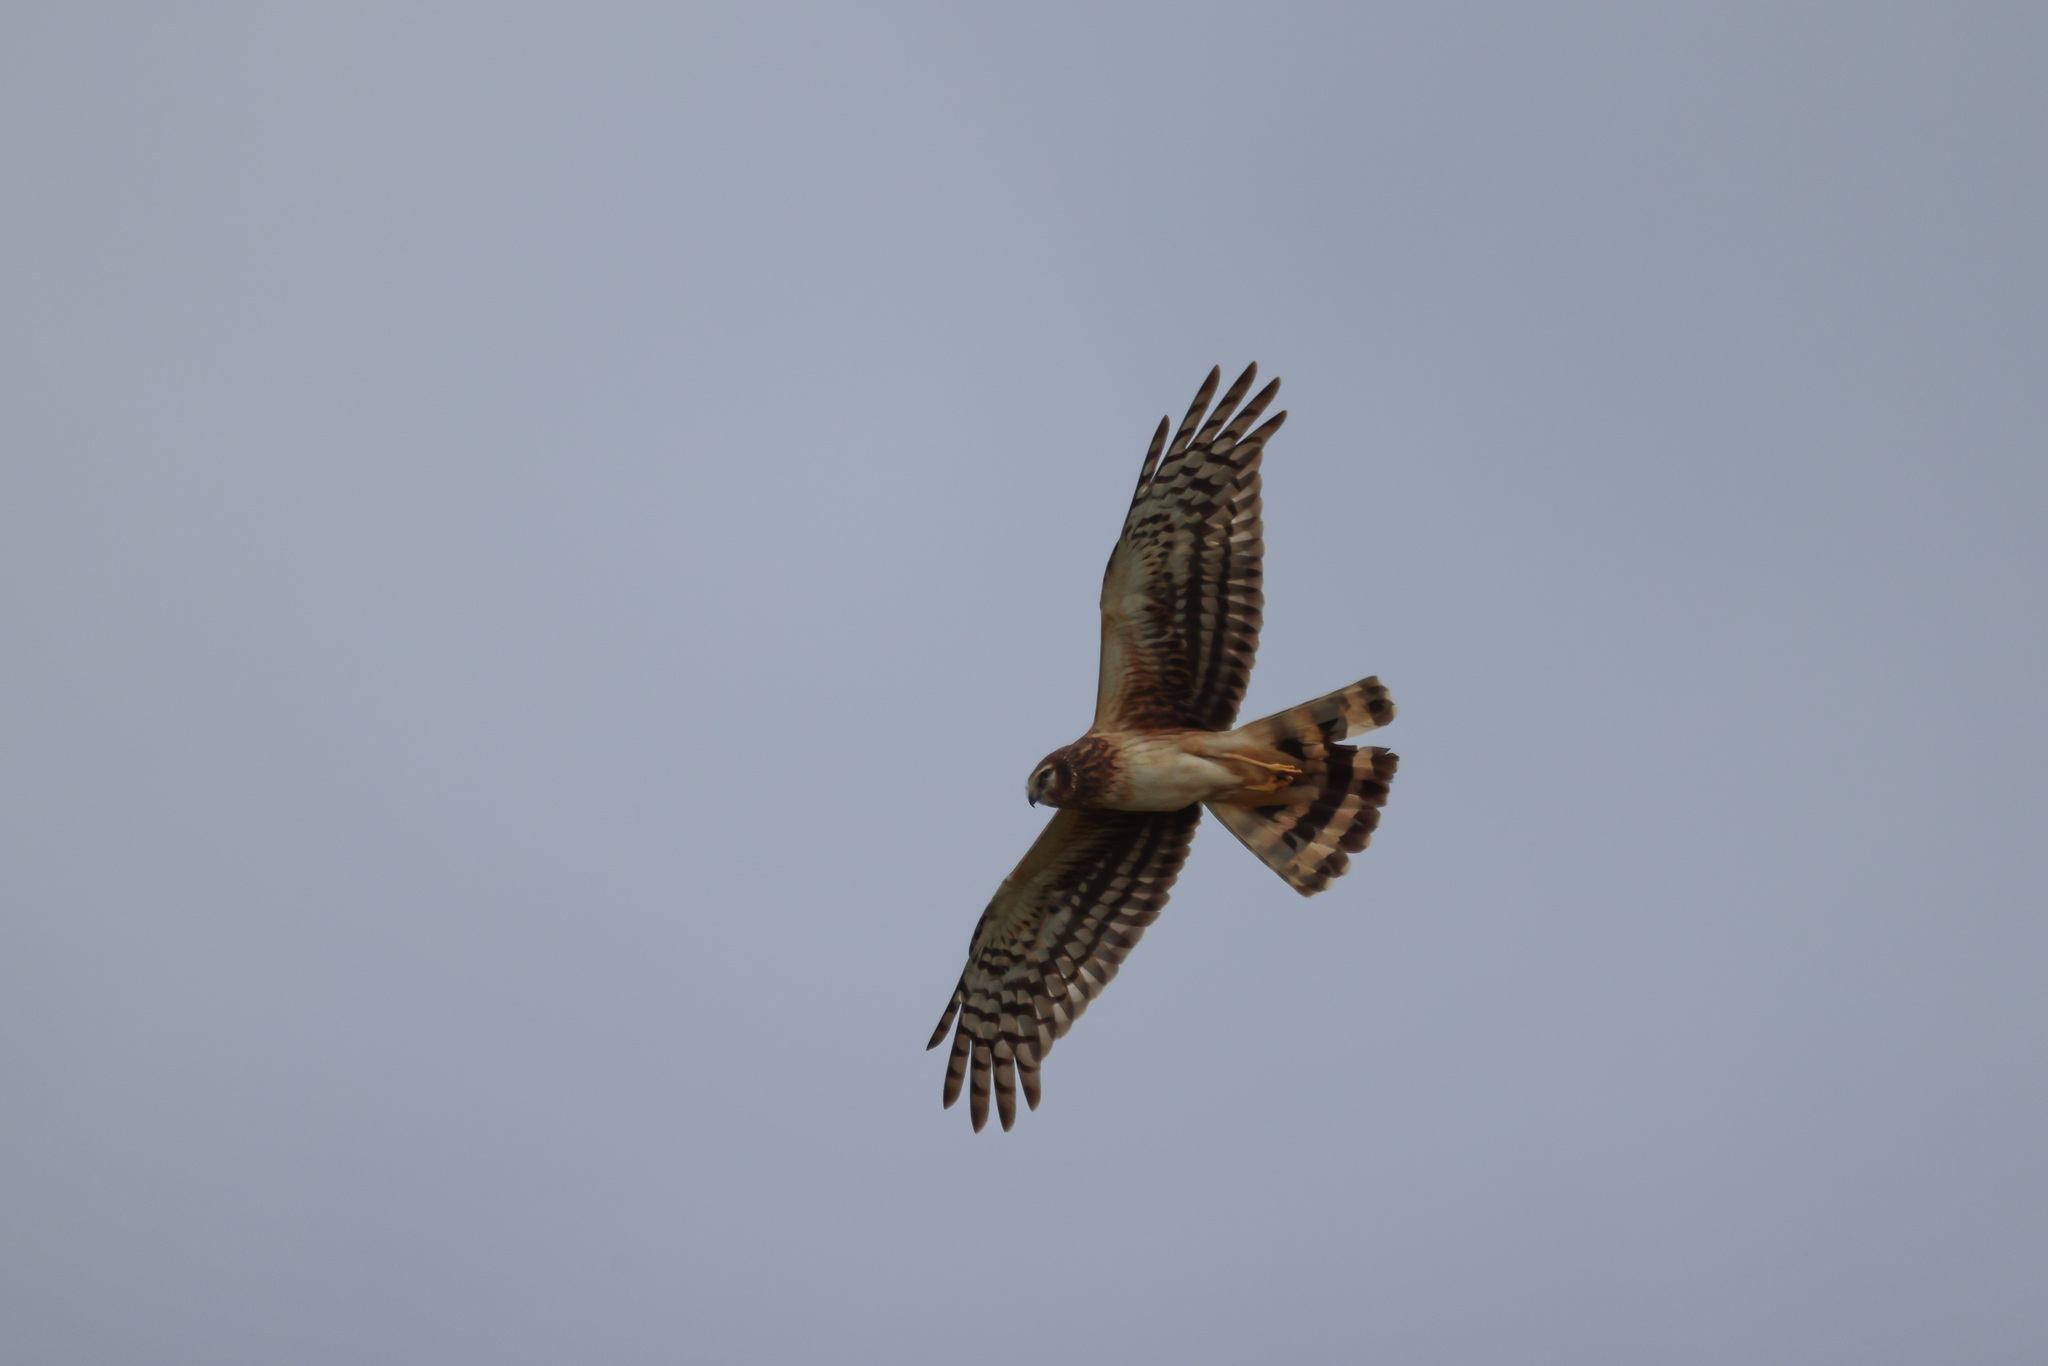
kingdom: Animalia
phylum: Chordata
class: Aves
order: Accipitriformes
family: Accipitridae
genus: Circus
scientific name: Circus cyaneus
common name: Hen harrier
